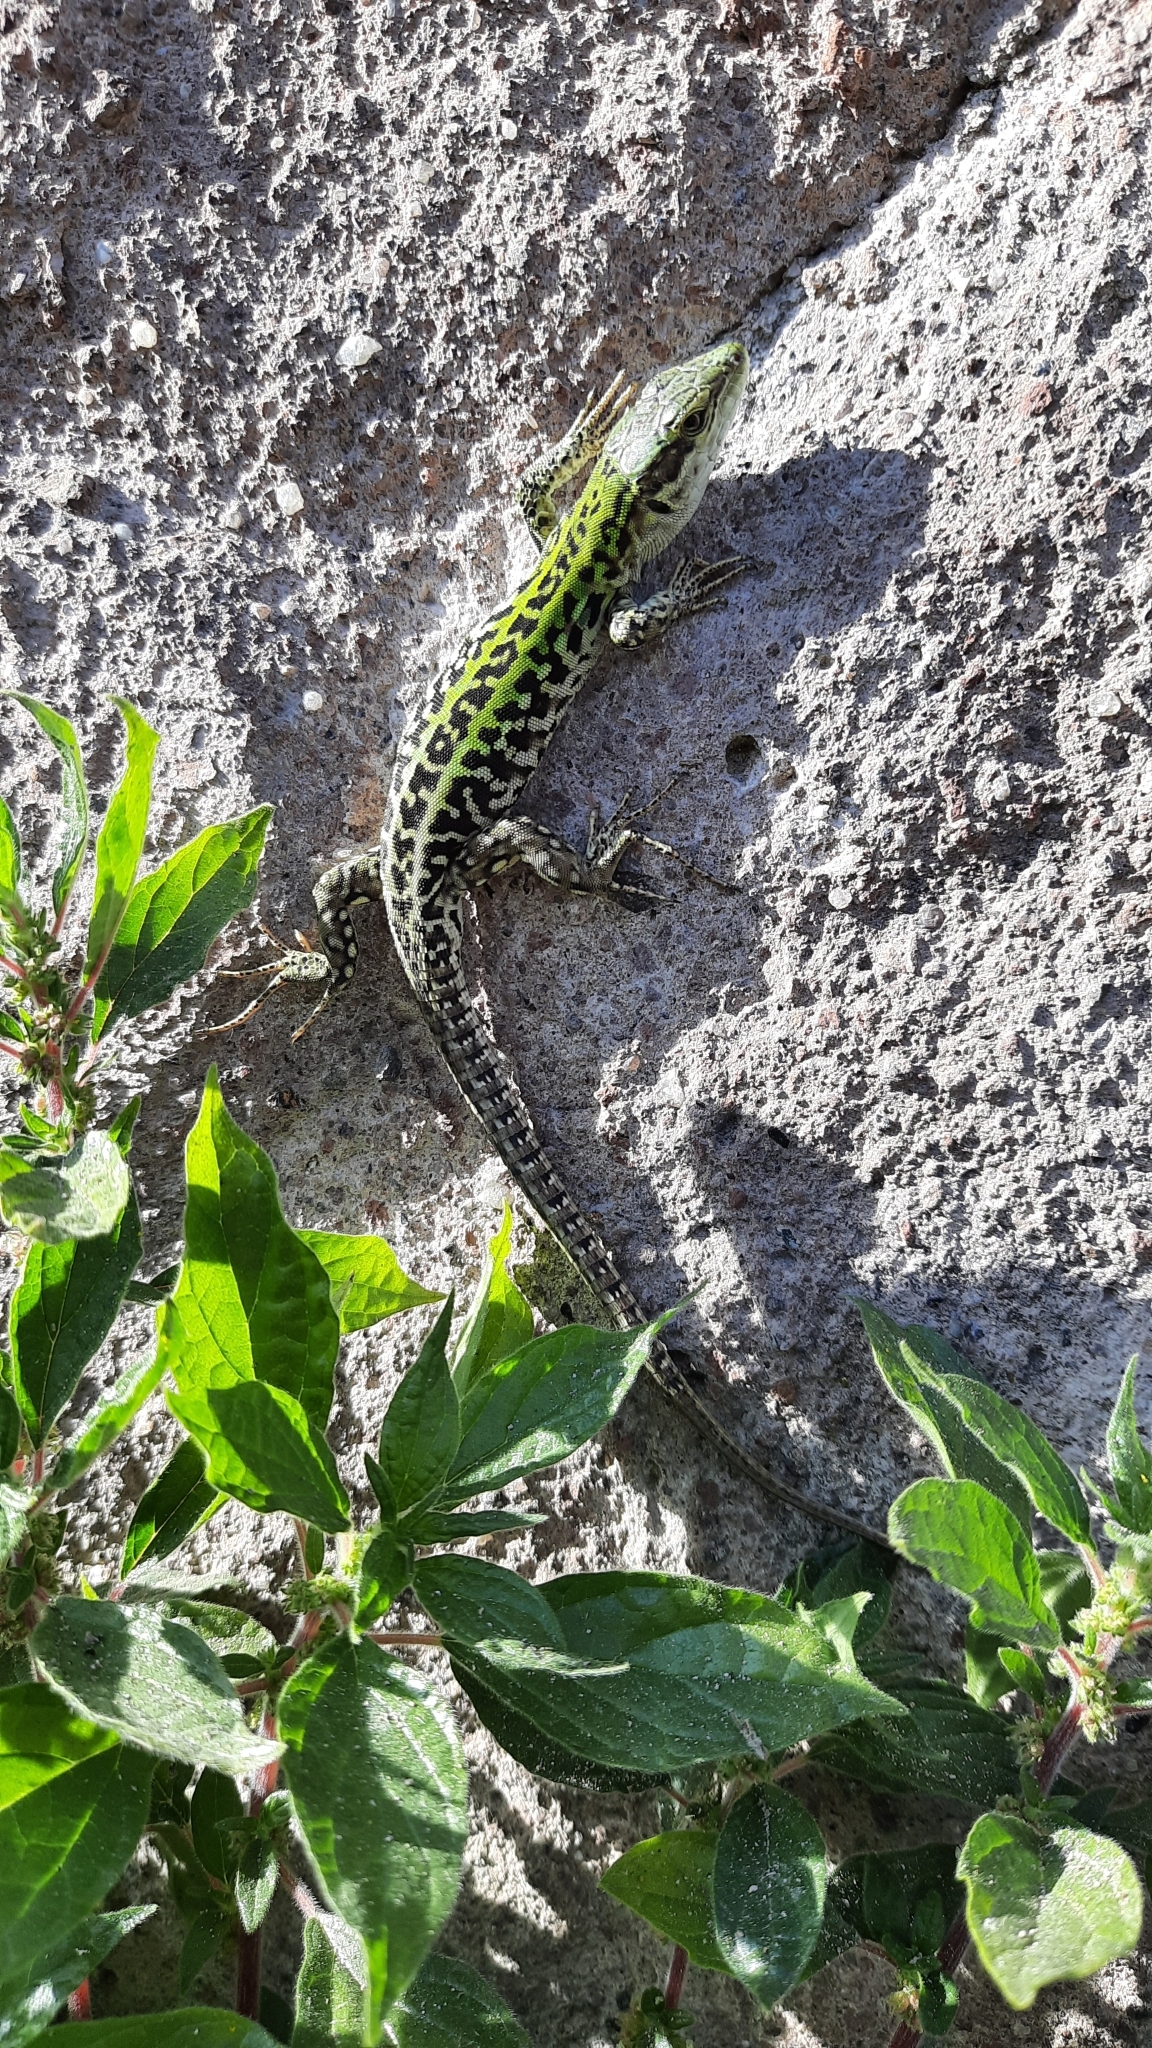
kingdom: Animalia
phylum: Chordata
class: Squamata
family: Lacertidae
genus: Podarcis
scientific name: Podarcis siculus
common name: Italian wall lizard
